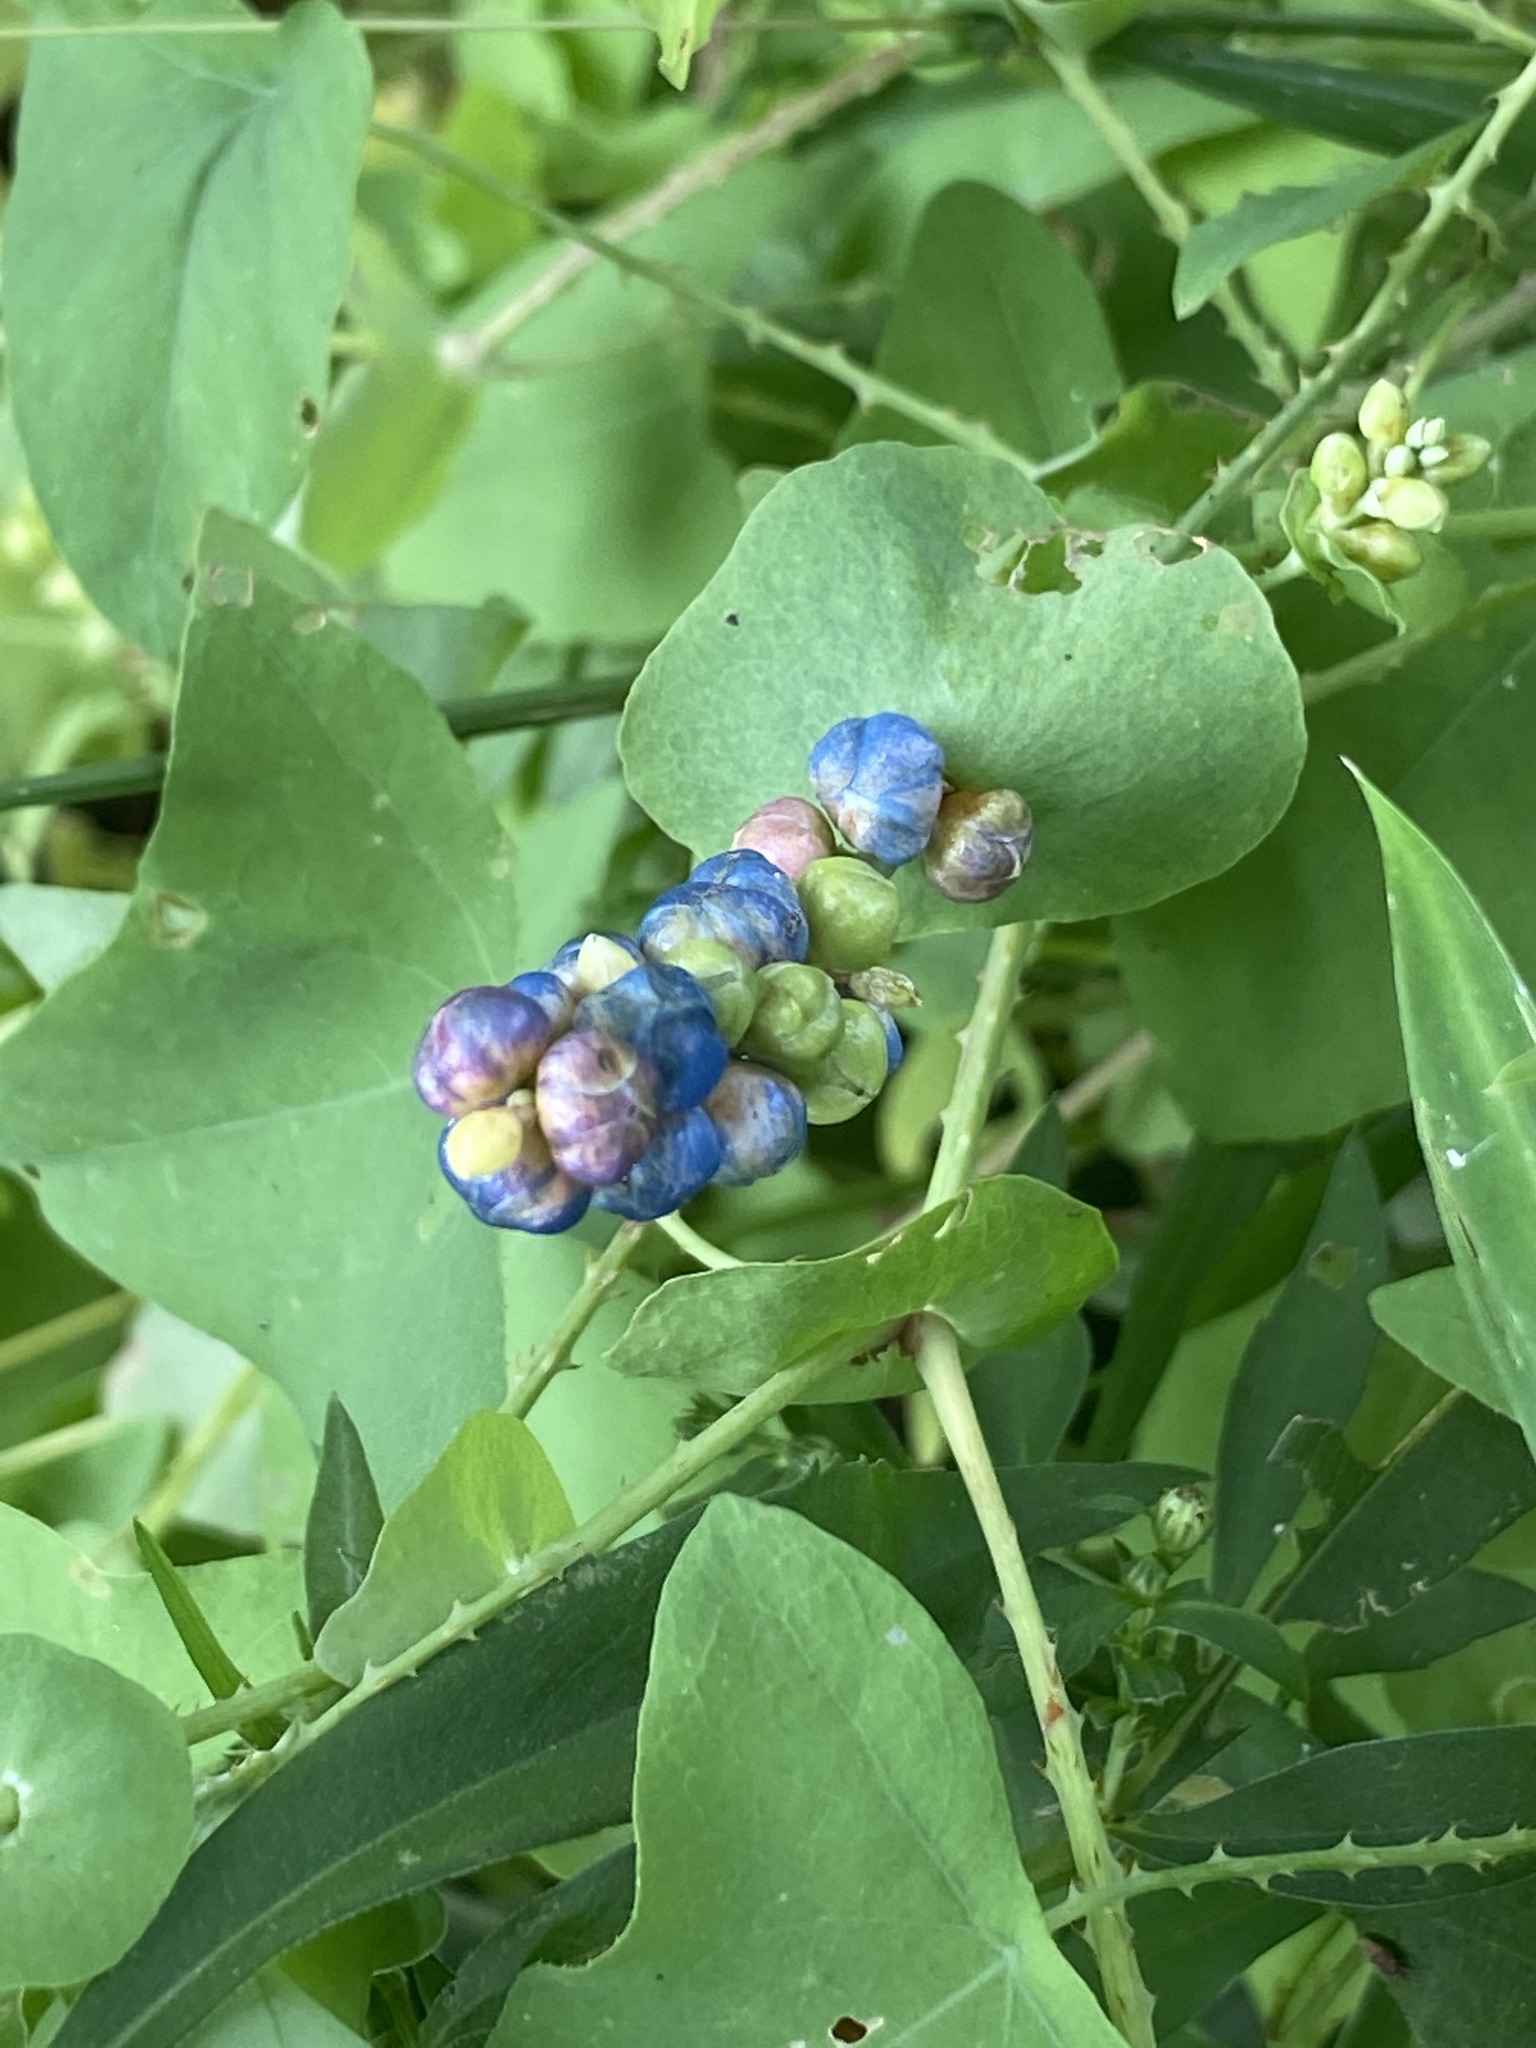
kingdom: Plantae
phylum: Tracheophyta
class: Magnoliopsida
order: Caryophyllales
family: Polygonaceae
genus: Persicaria
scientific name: Persicaria perfoliata
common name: Asiatic tearthumb
